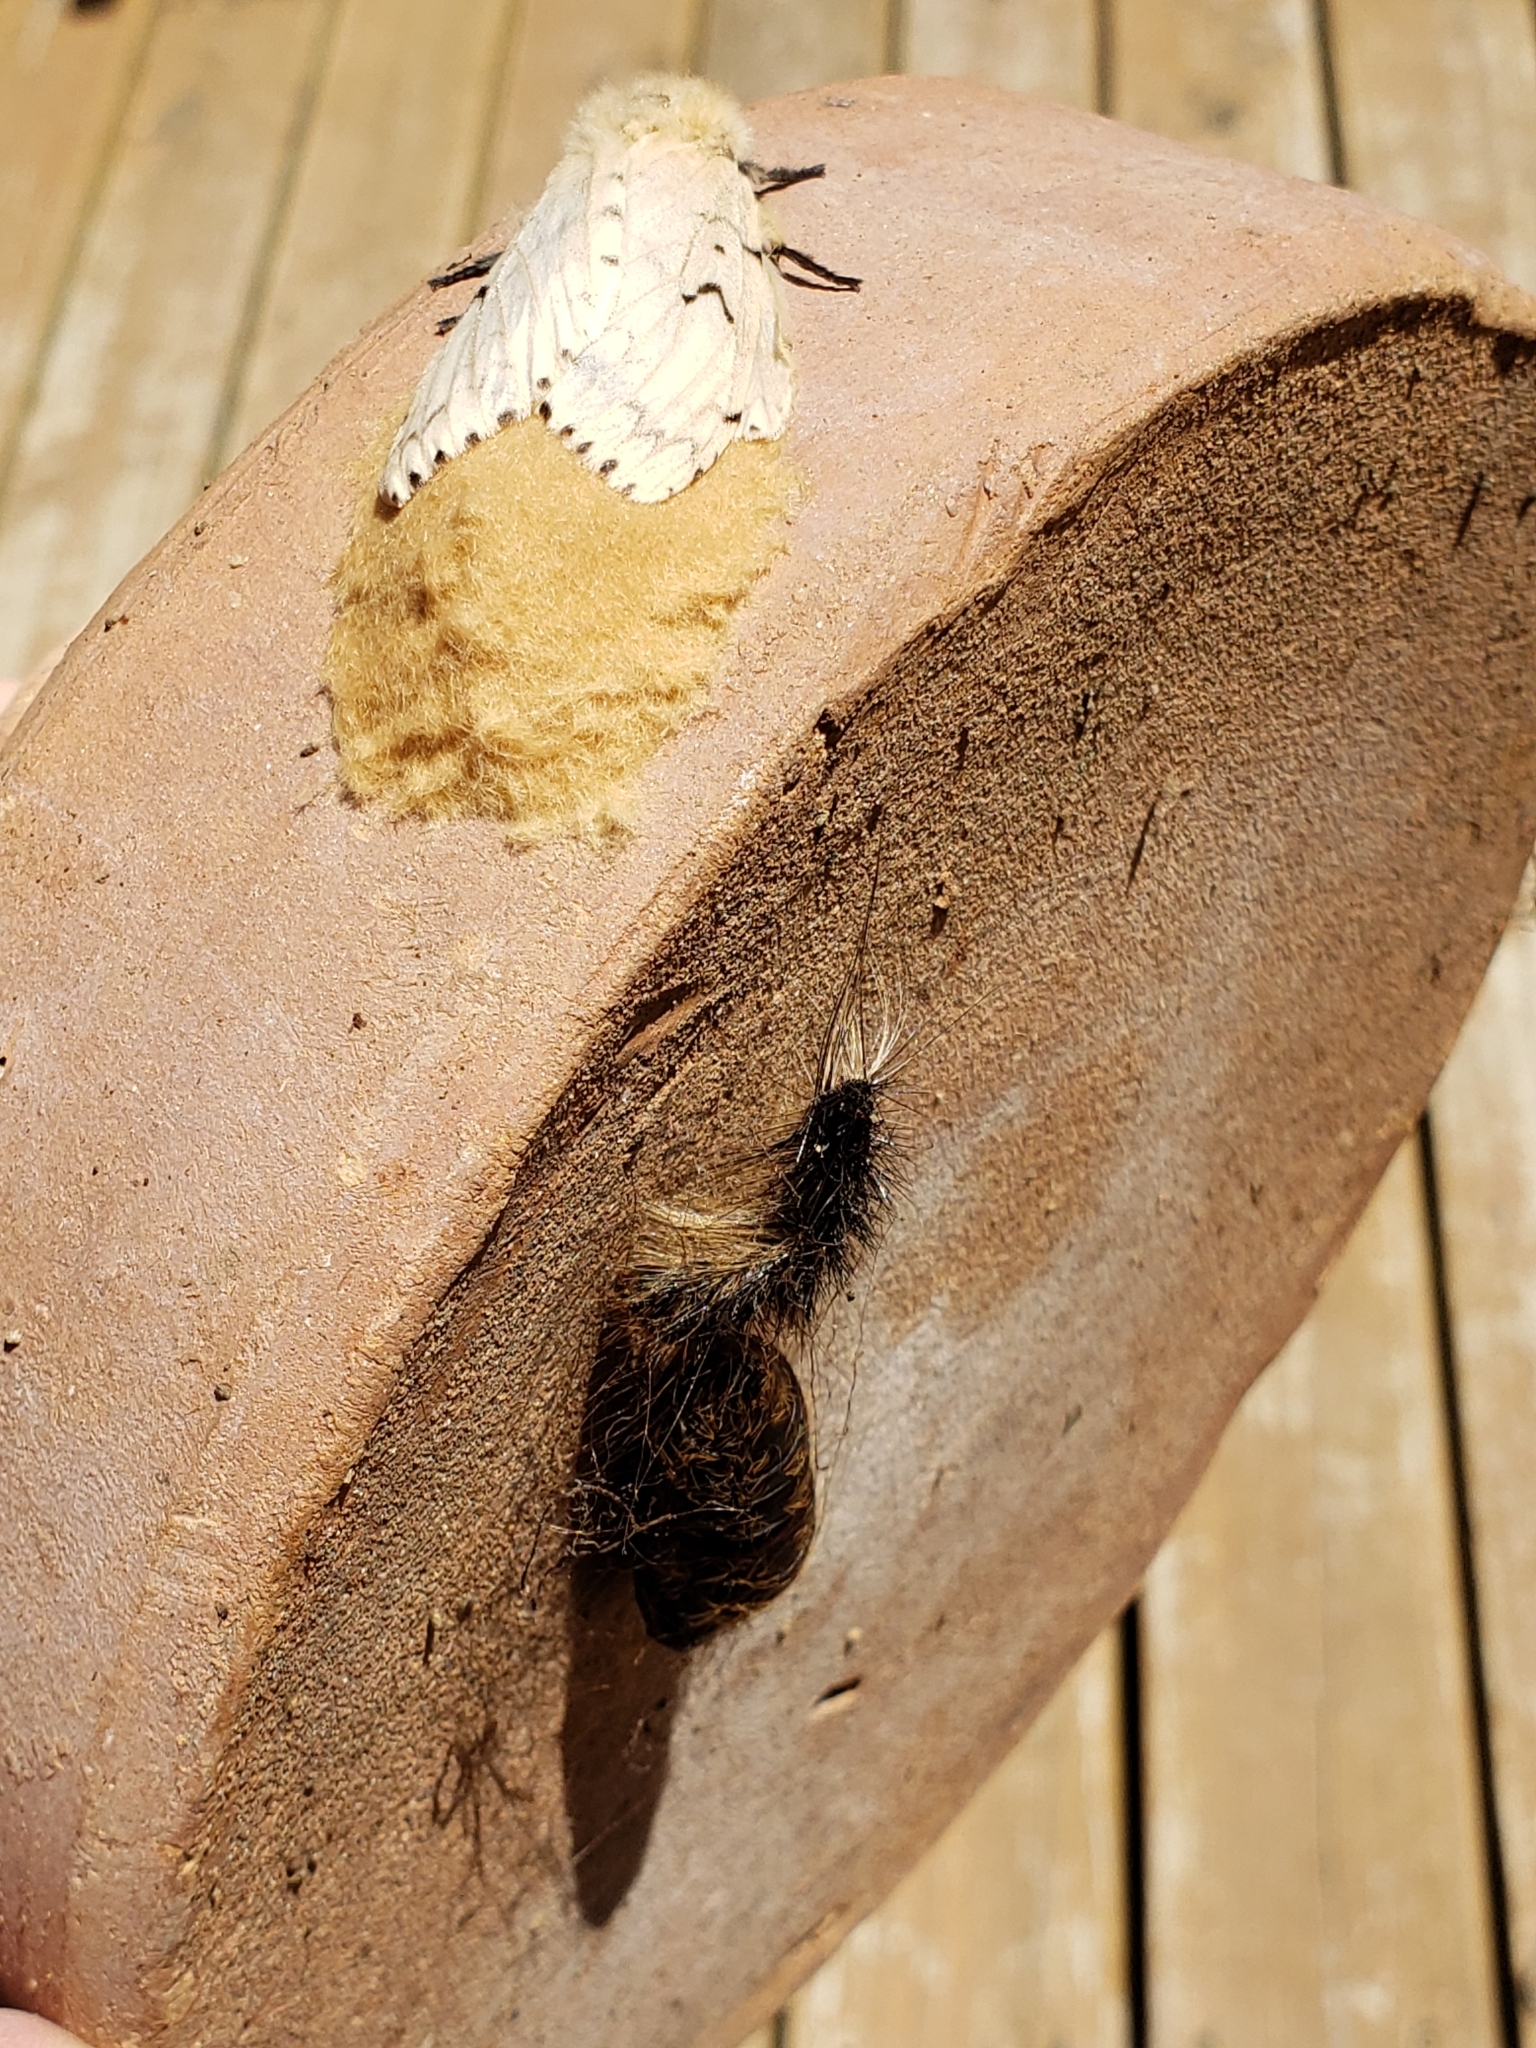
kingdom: Animalia
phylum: Arthropoda
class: Insecta
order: Lepidoptera
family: Erebidae
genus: Lymantria
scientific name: Lymantria dispar
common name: Gypsy moth
